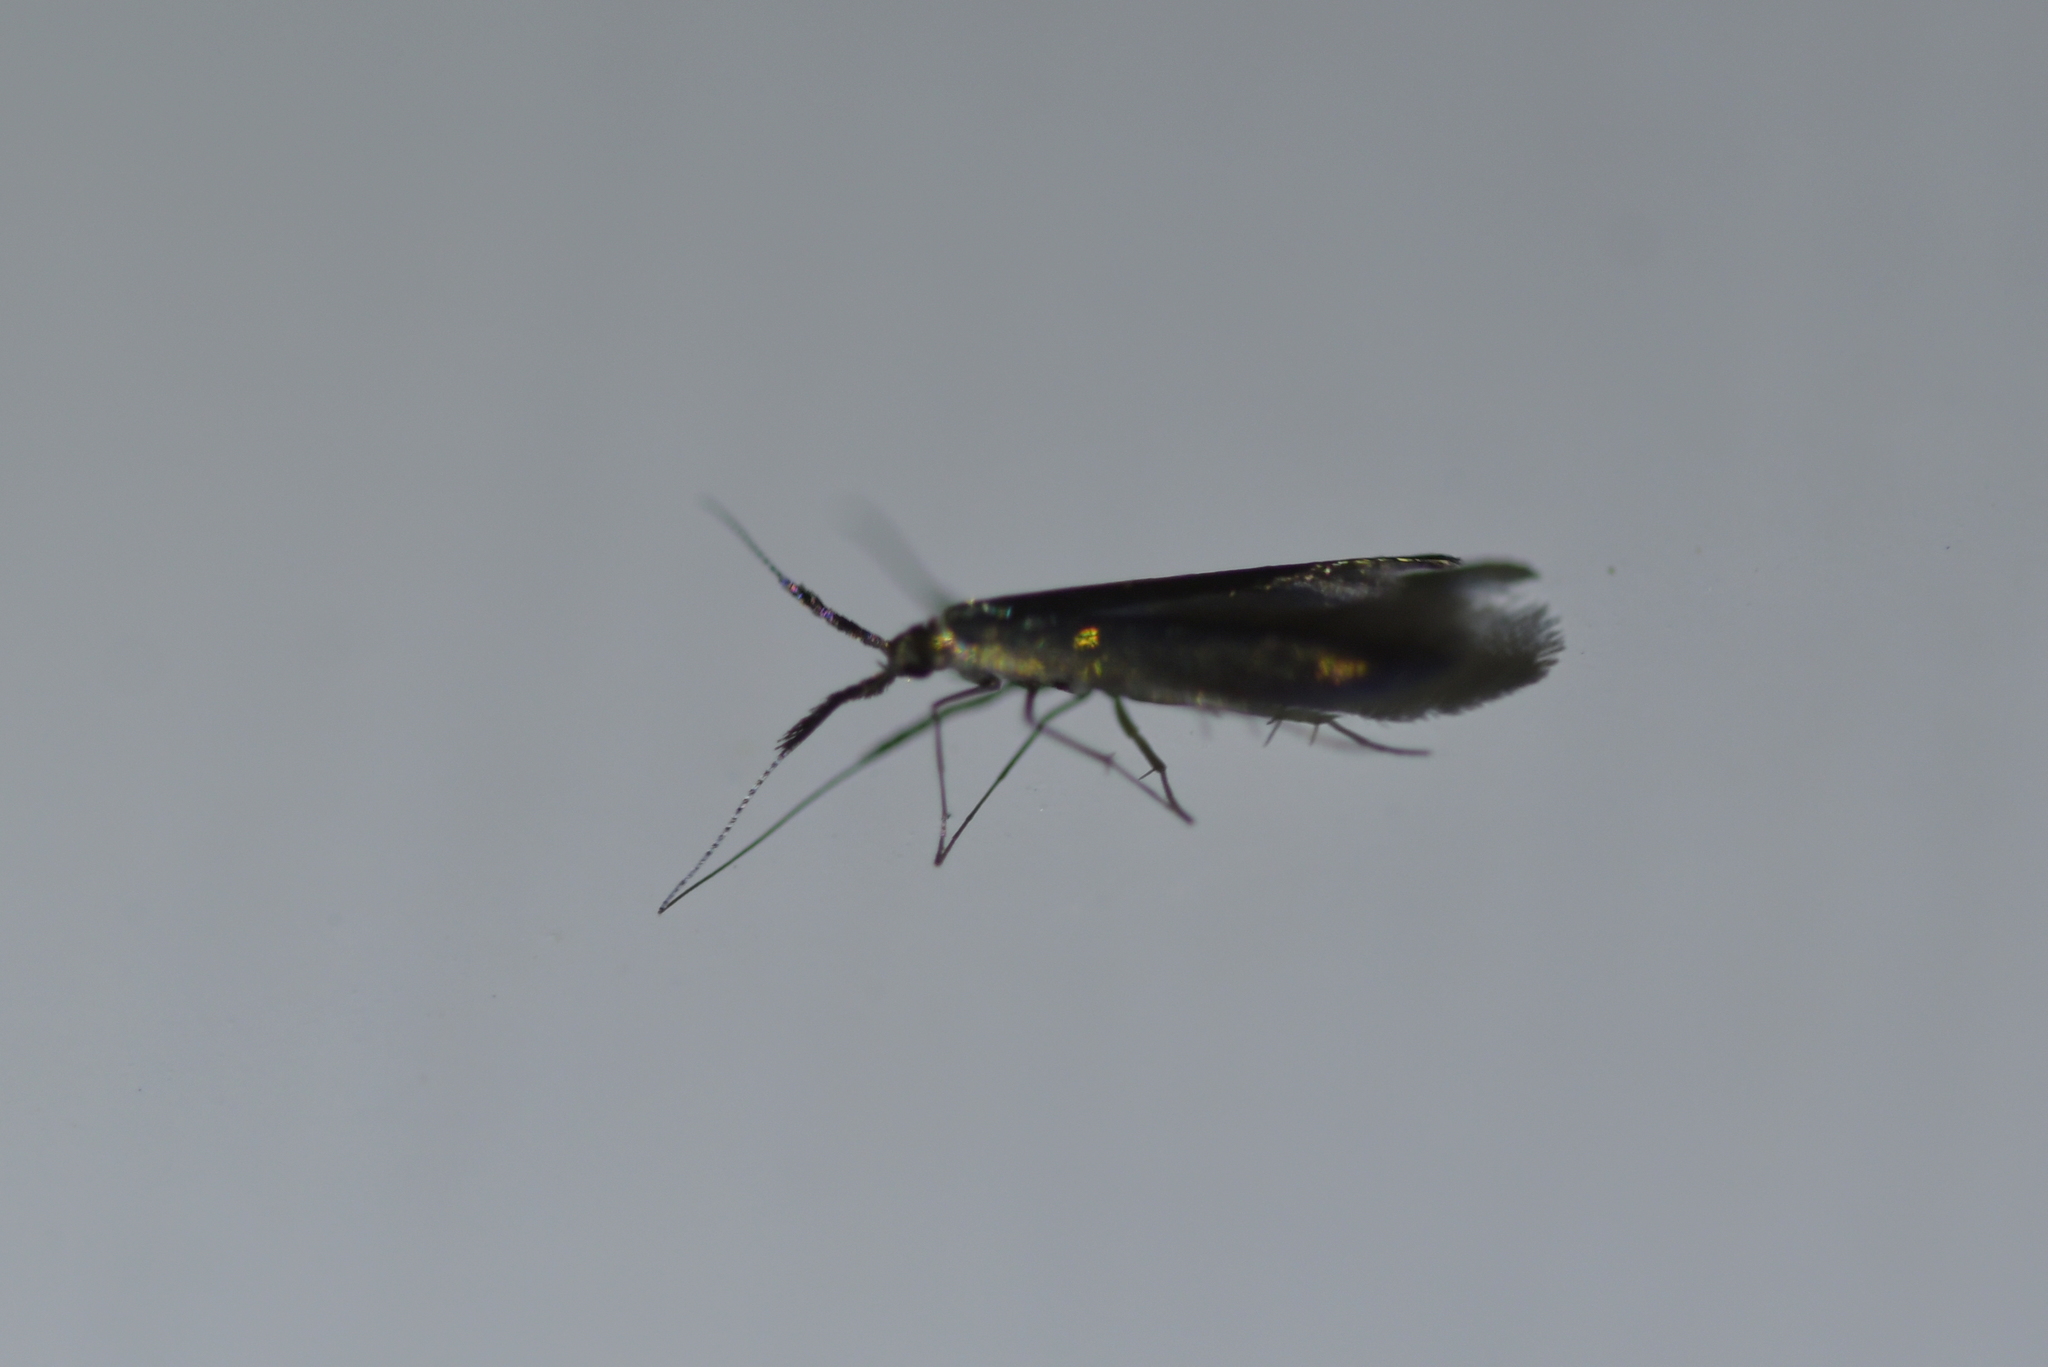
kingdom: Animalia
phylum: Arthropoda
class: Insecta
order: Lepidoptera
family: Coleophoridae
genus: Coleophora
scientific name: Coleophora mayrella
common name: Meadow case-bearer
